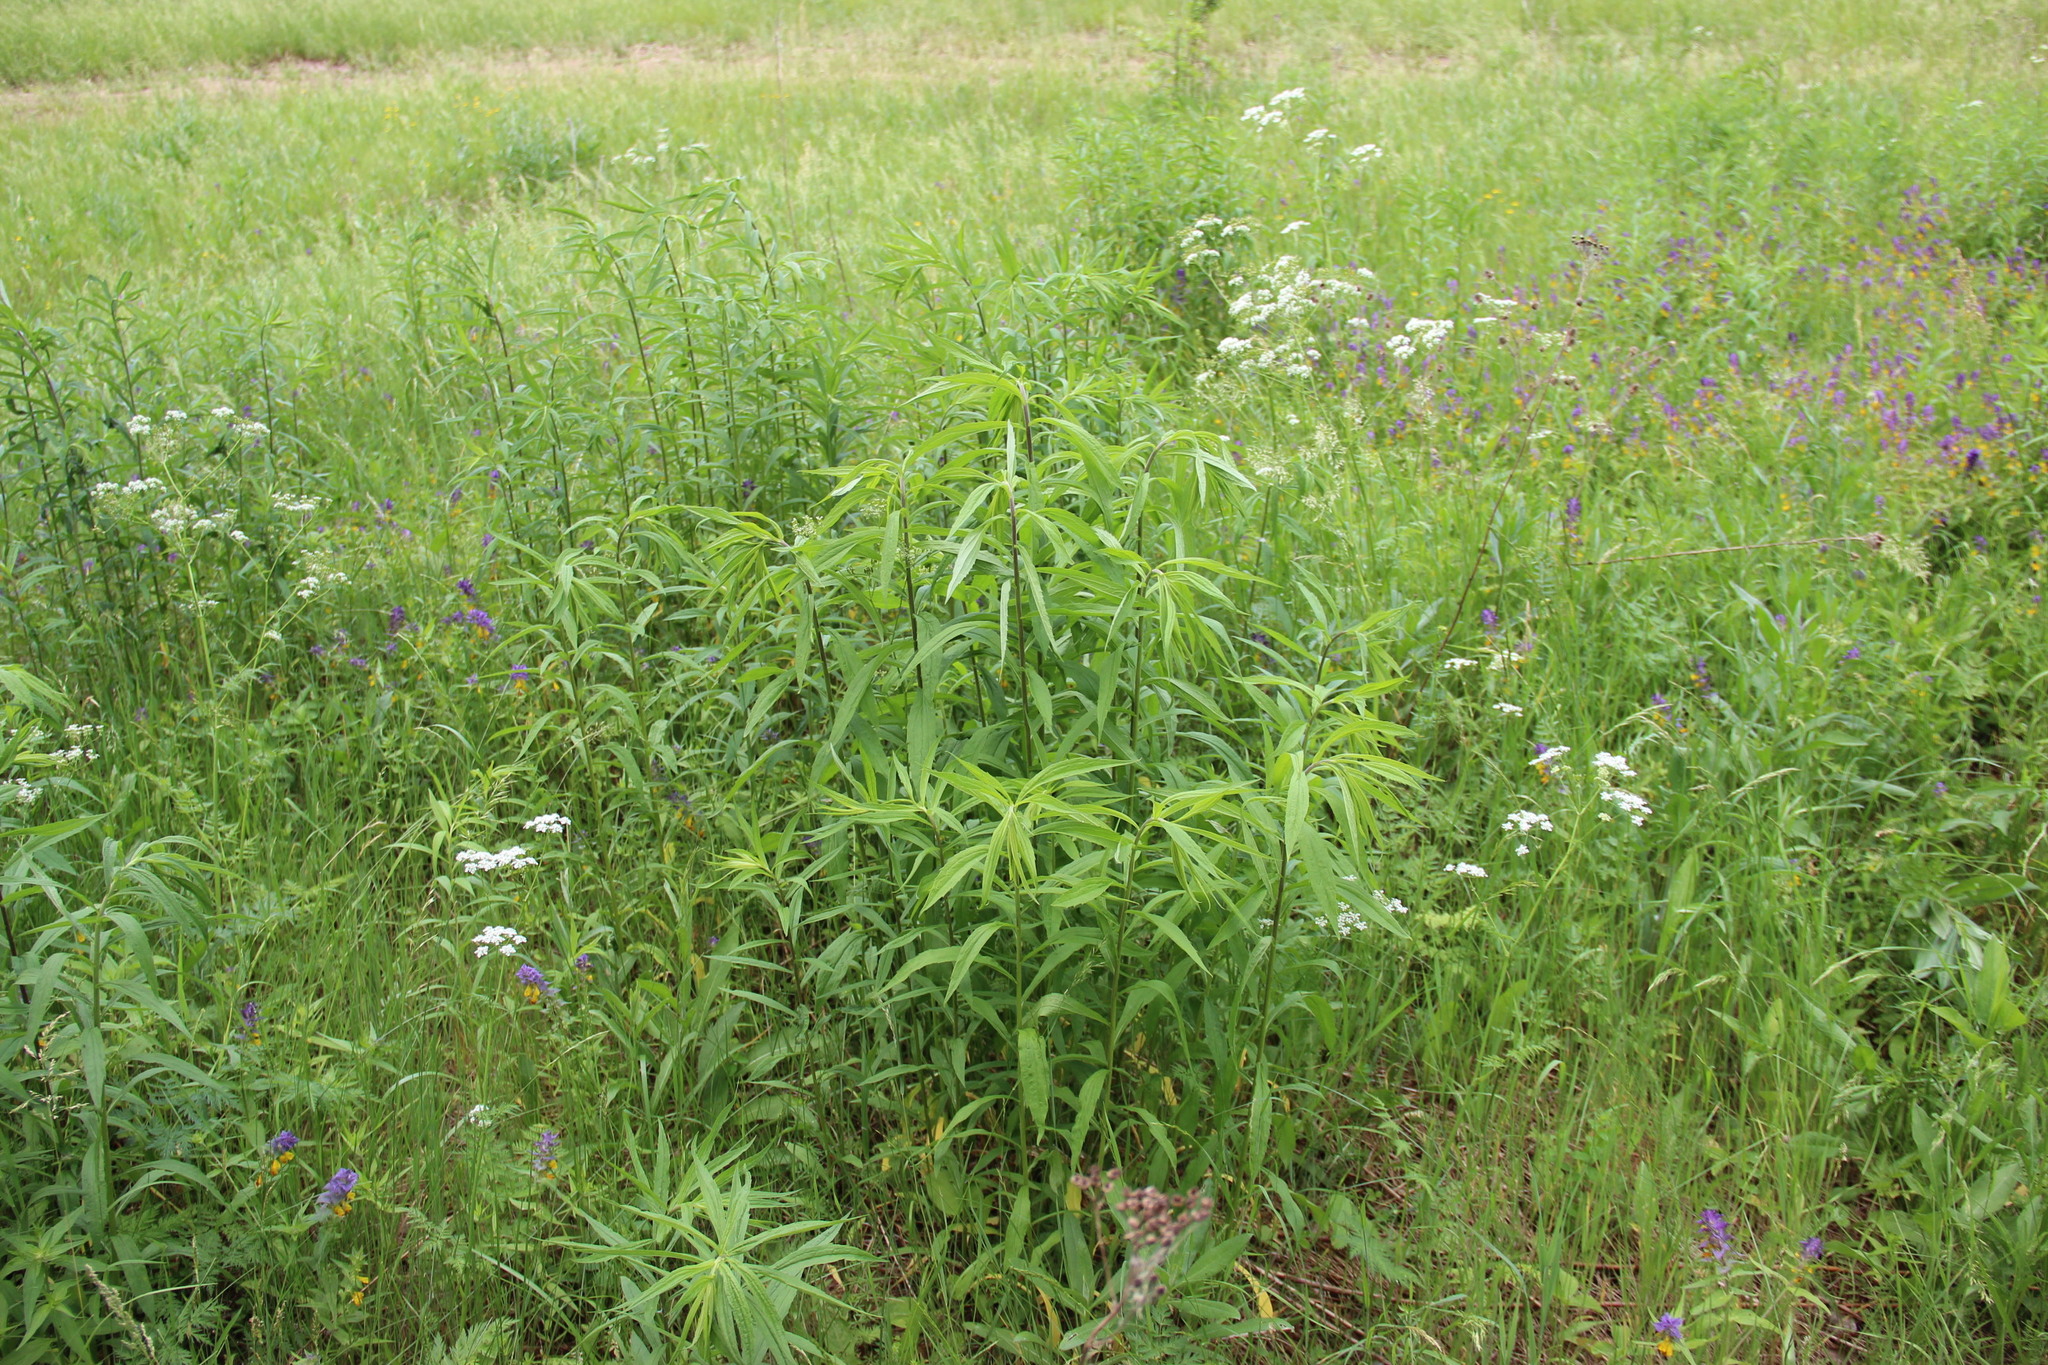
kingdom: Plantae
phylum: Tracheophyta
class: Magnoliopsida
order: Asterales
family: Asteraceae
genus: Solidago
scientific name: Solidago gigantea
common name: Giant goldenrod
